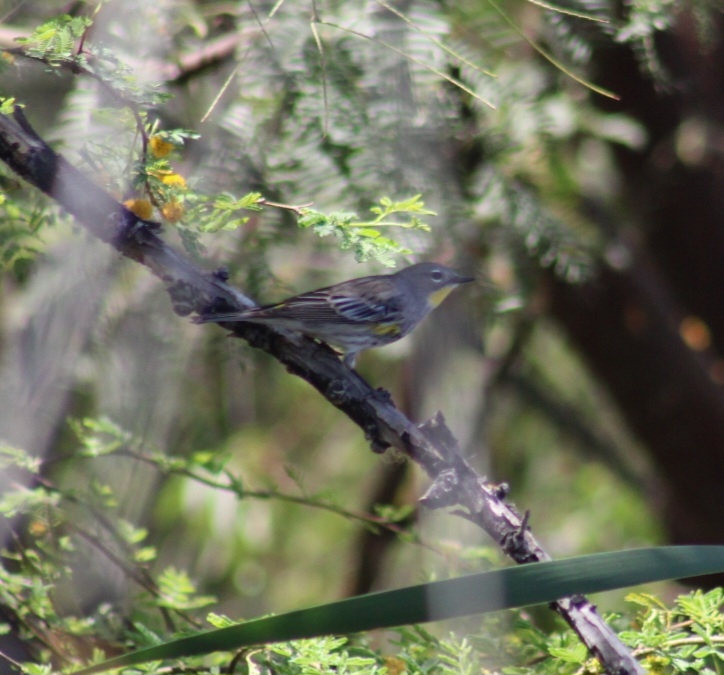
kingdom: Animalia
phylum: Chordata
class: Aves
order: Passeriformes
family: Parulidae
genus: Setophaga
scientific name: Setophaga auduboni
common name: Audubon's warbler
